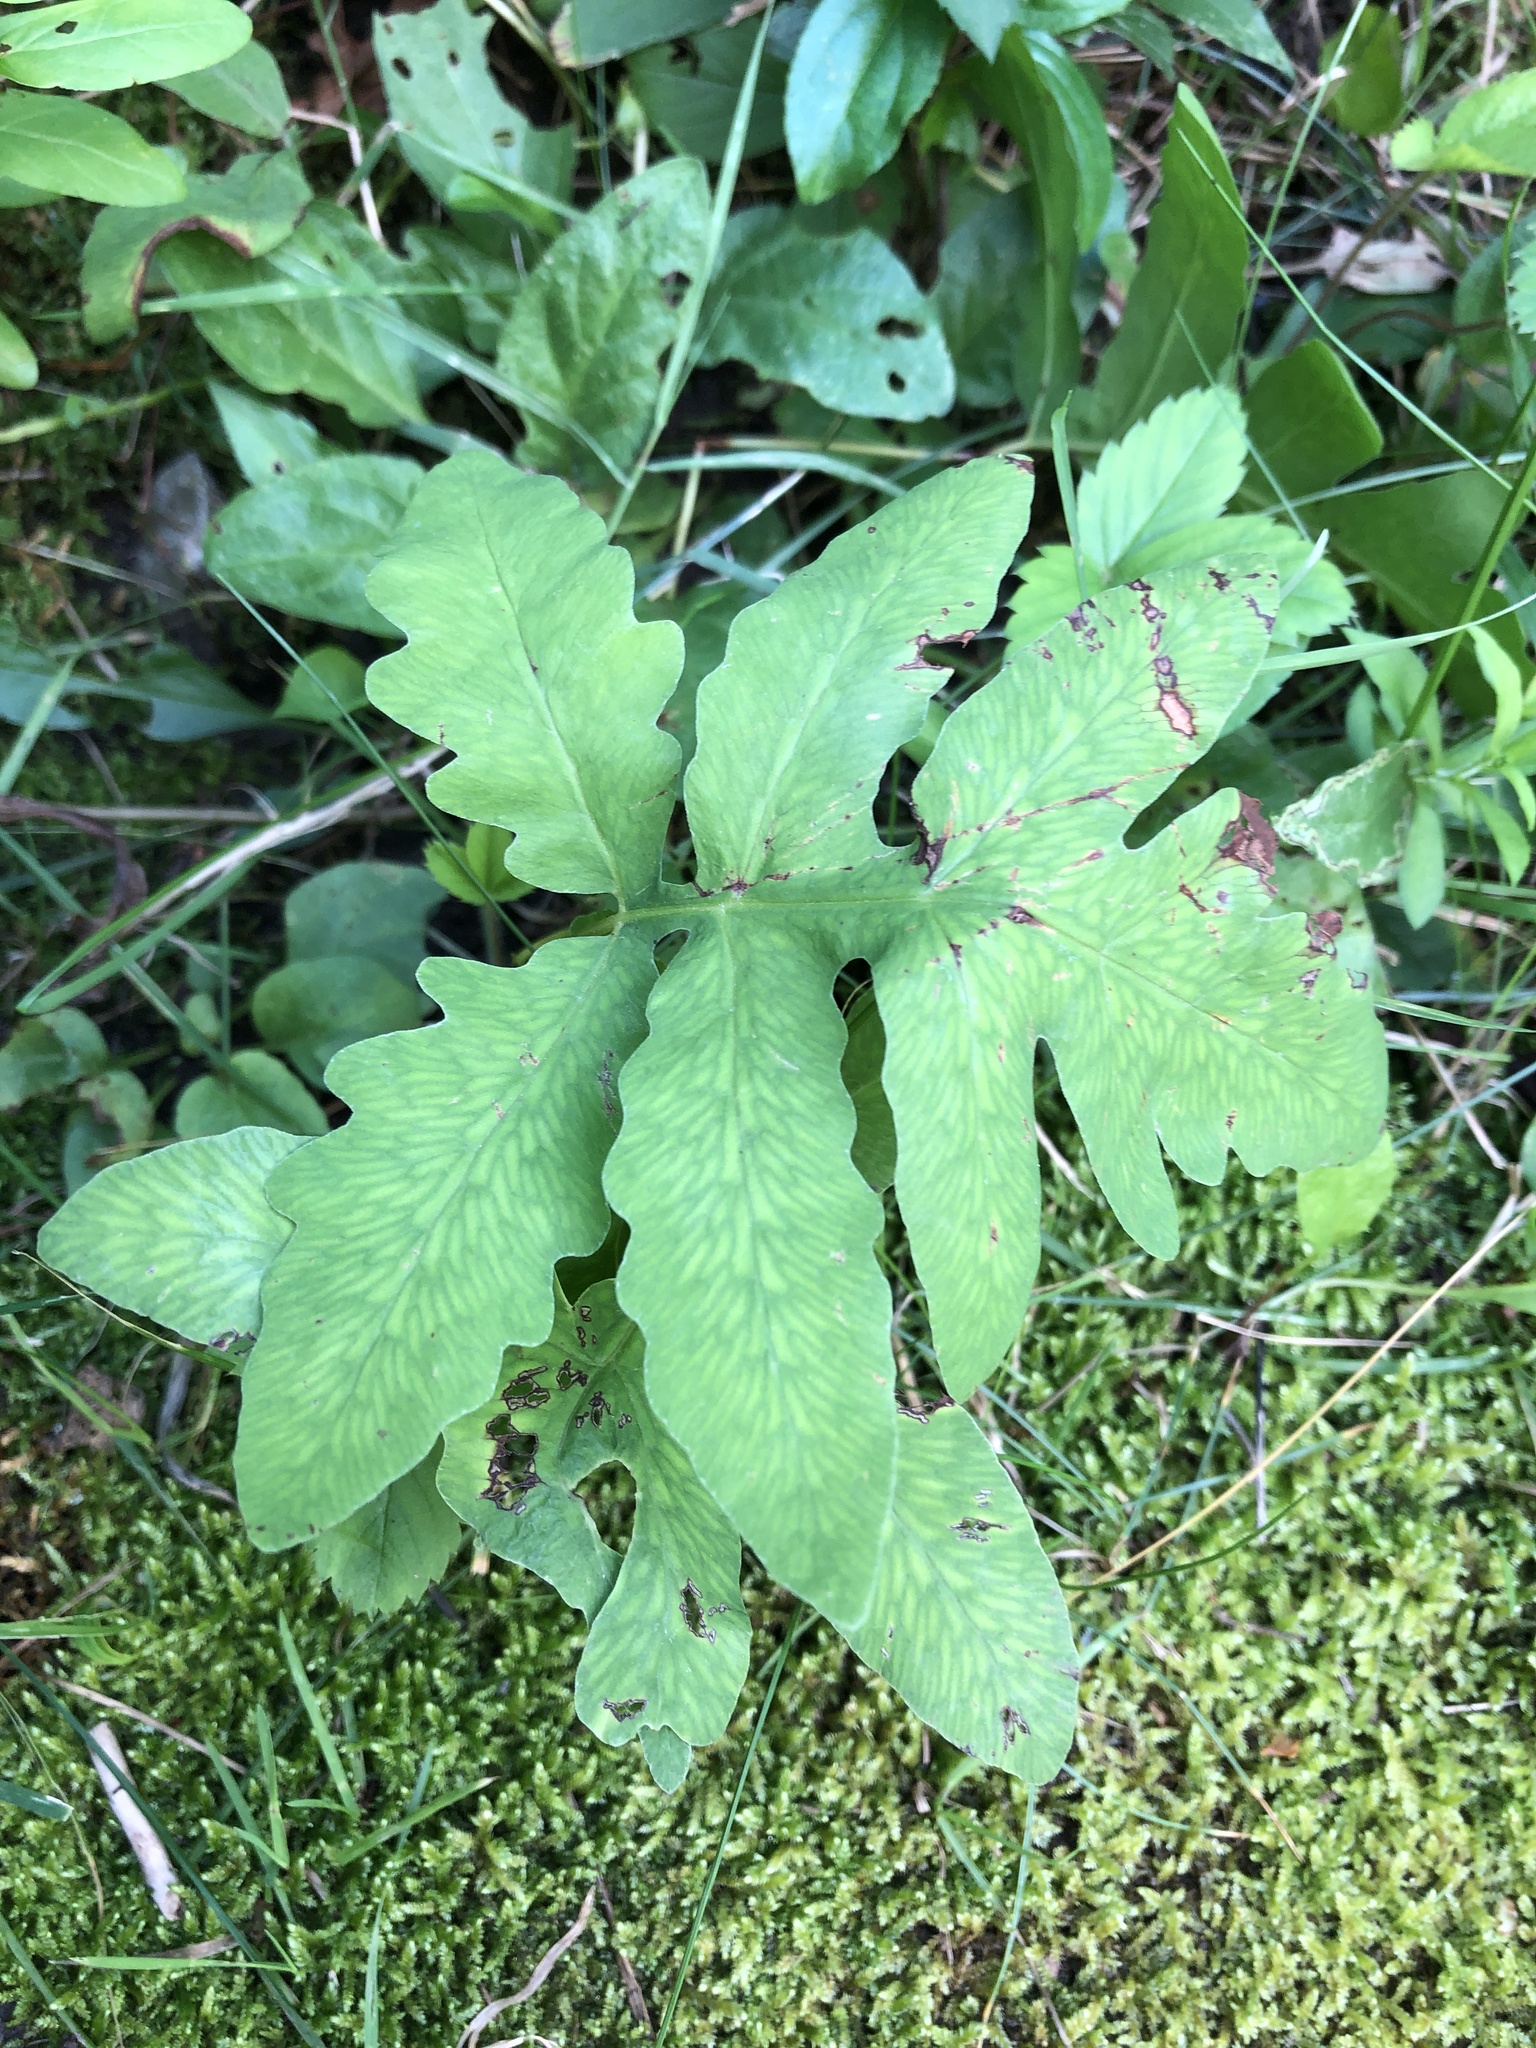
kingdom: Plantae
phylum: Tracheophyta
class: Polypodiopsida
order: Polypodiales
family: Onocleaceae
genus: Onoclea
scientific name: Onoclea sensibilis
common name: Sensitive fern
